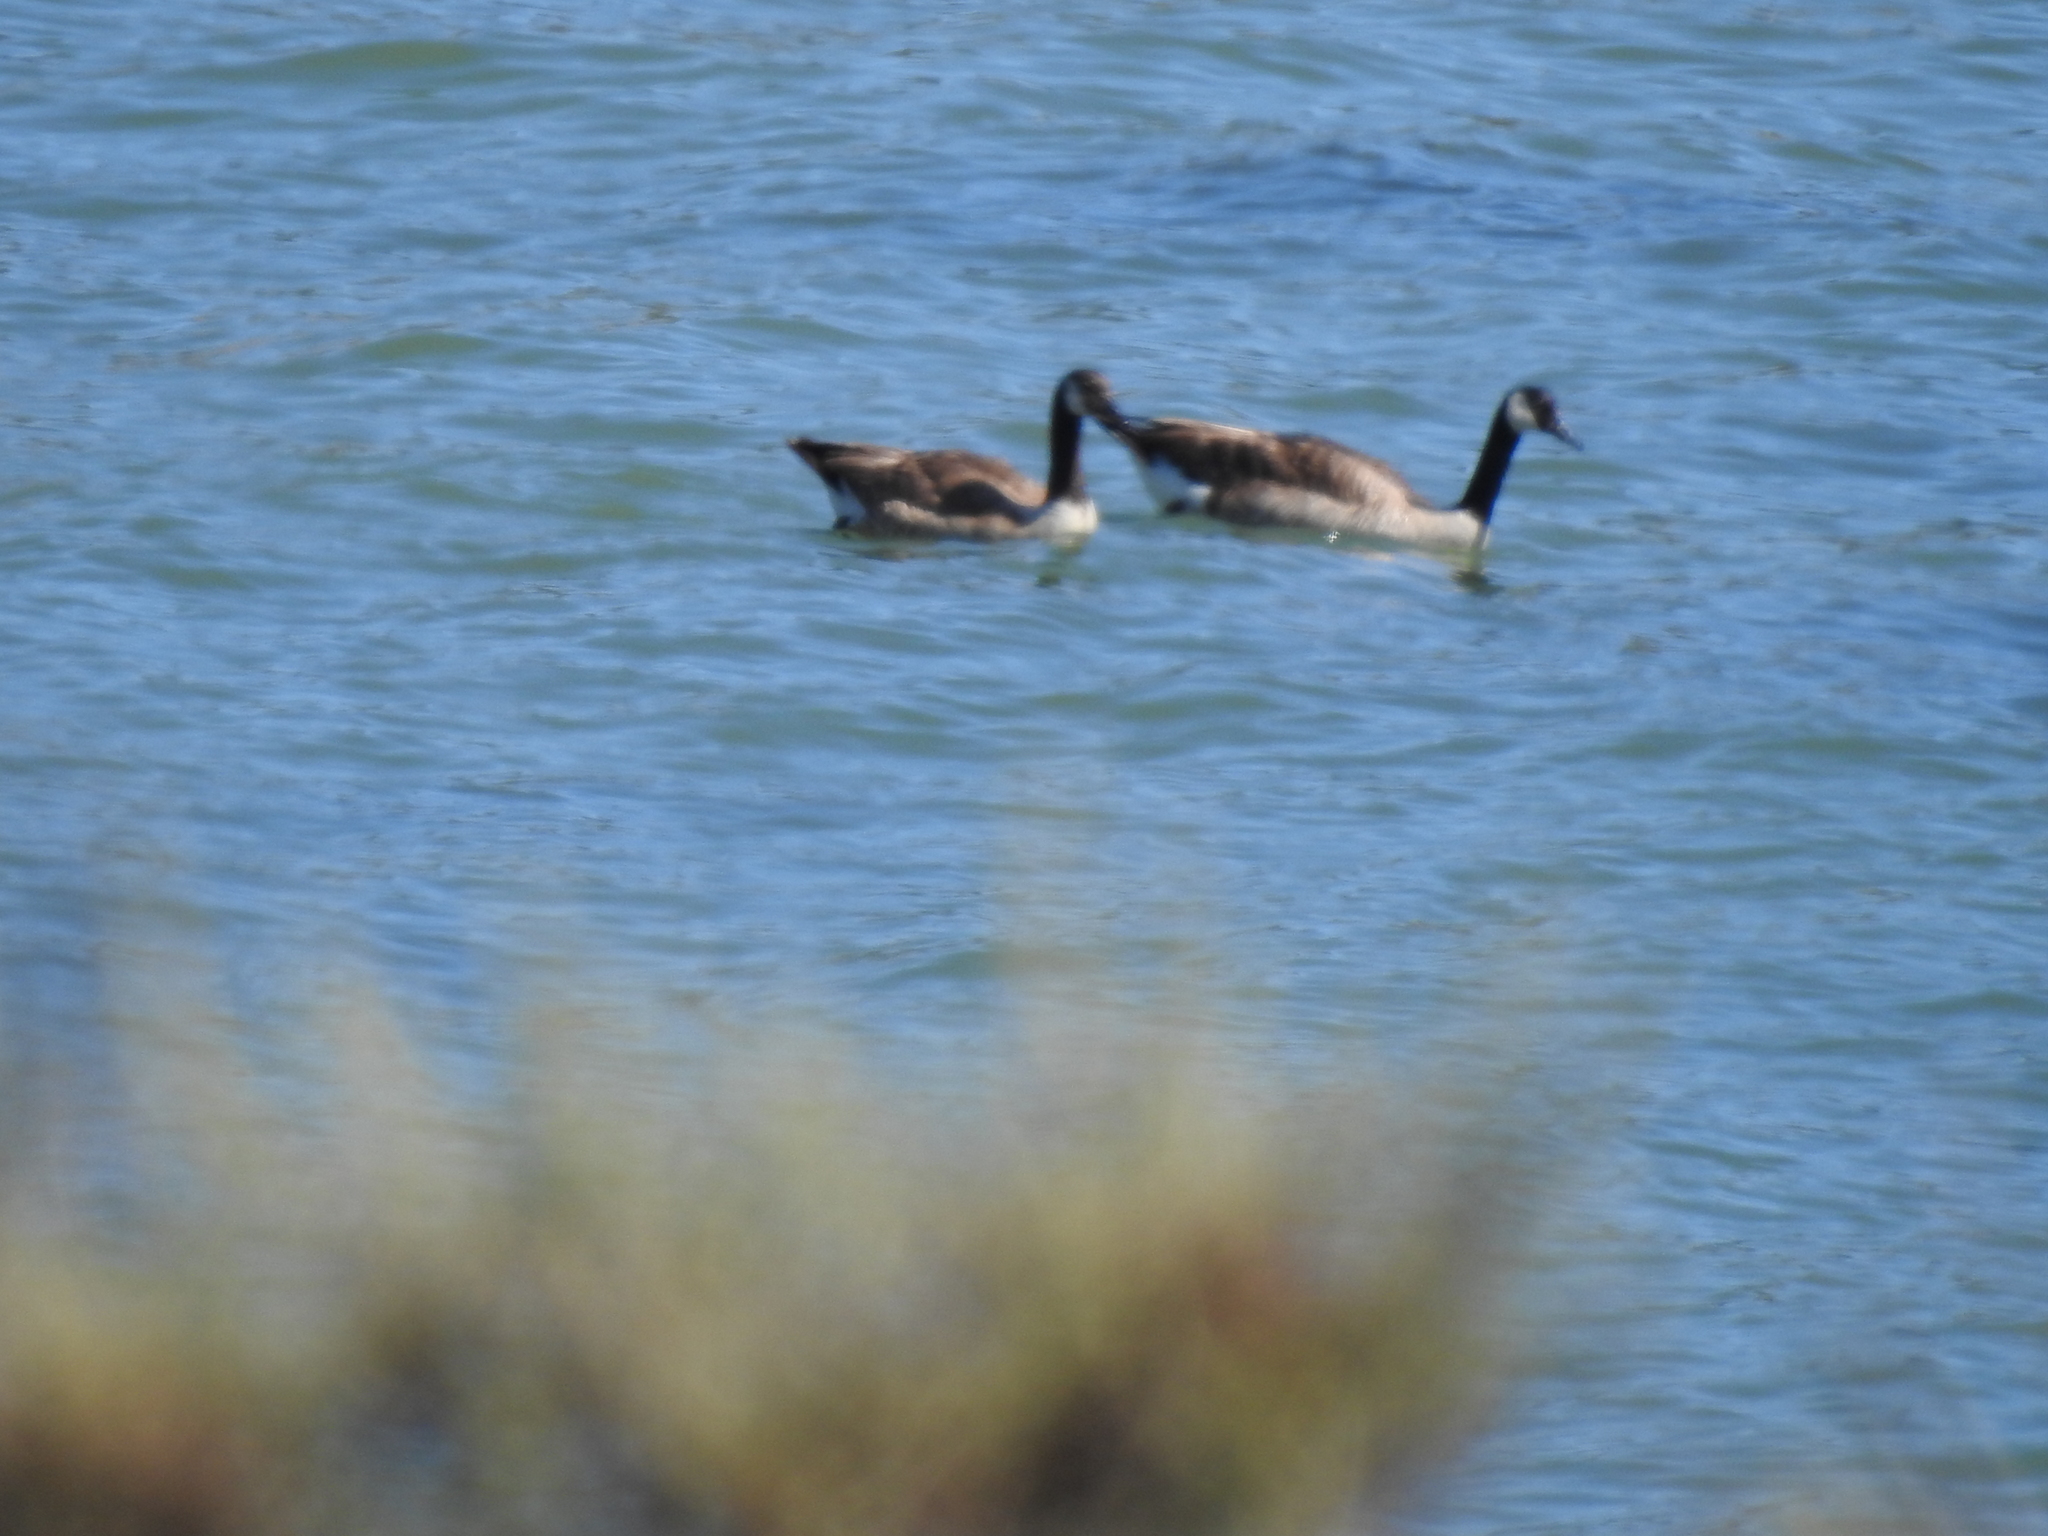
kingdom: Animalia
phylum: Chordata
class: Aves
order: Anseriformes
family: Anatidae
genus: Branta
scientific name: Branta canadensis
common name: Canada goose
